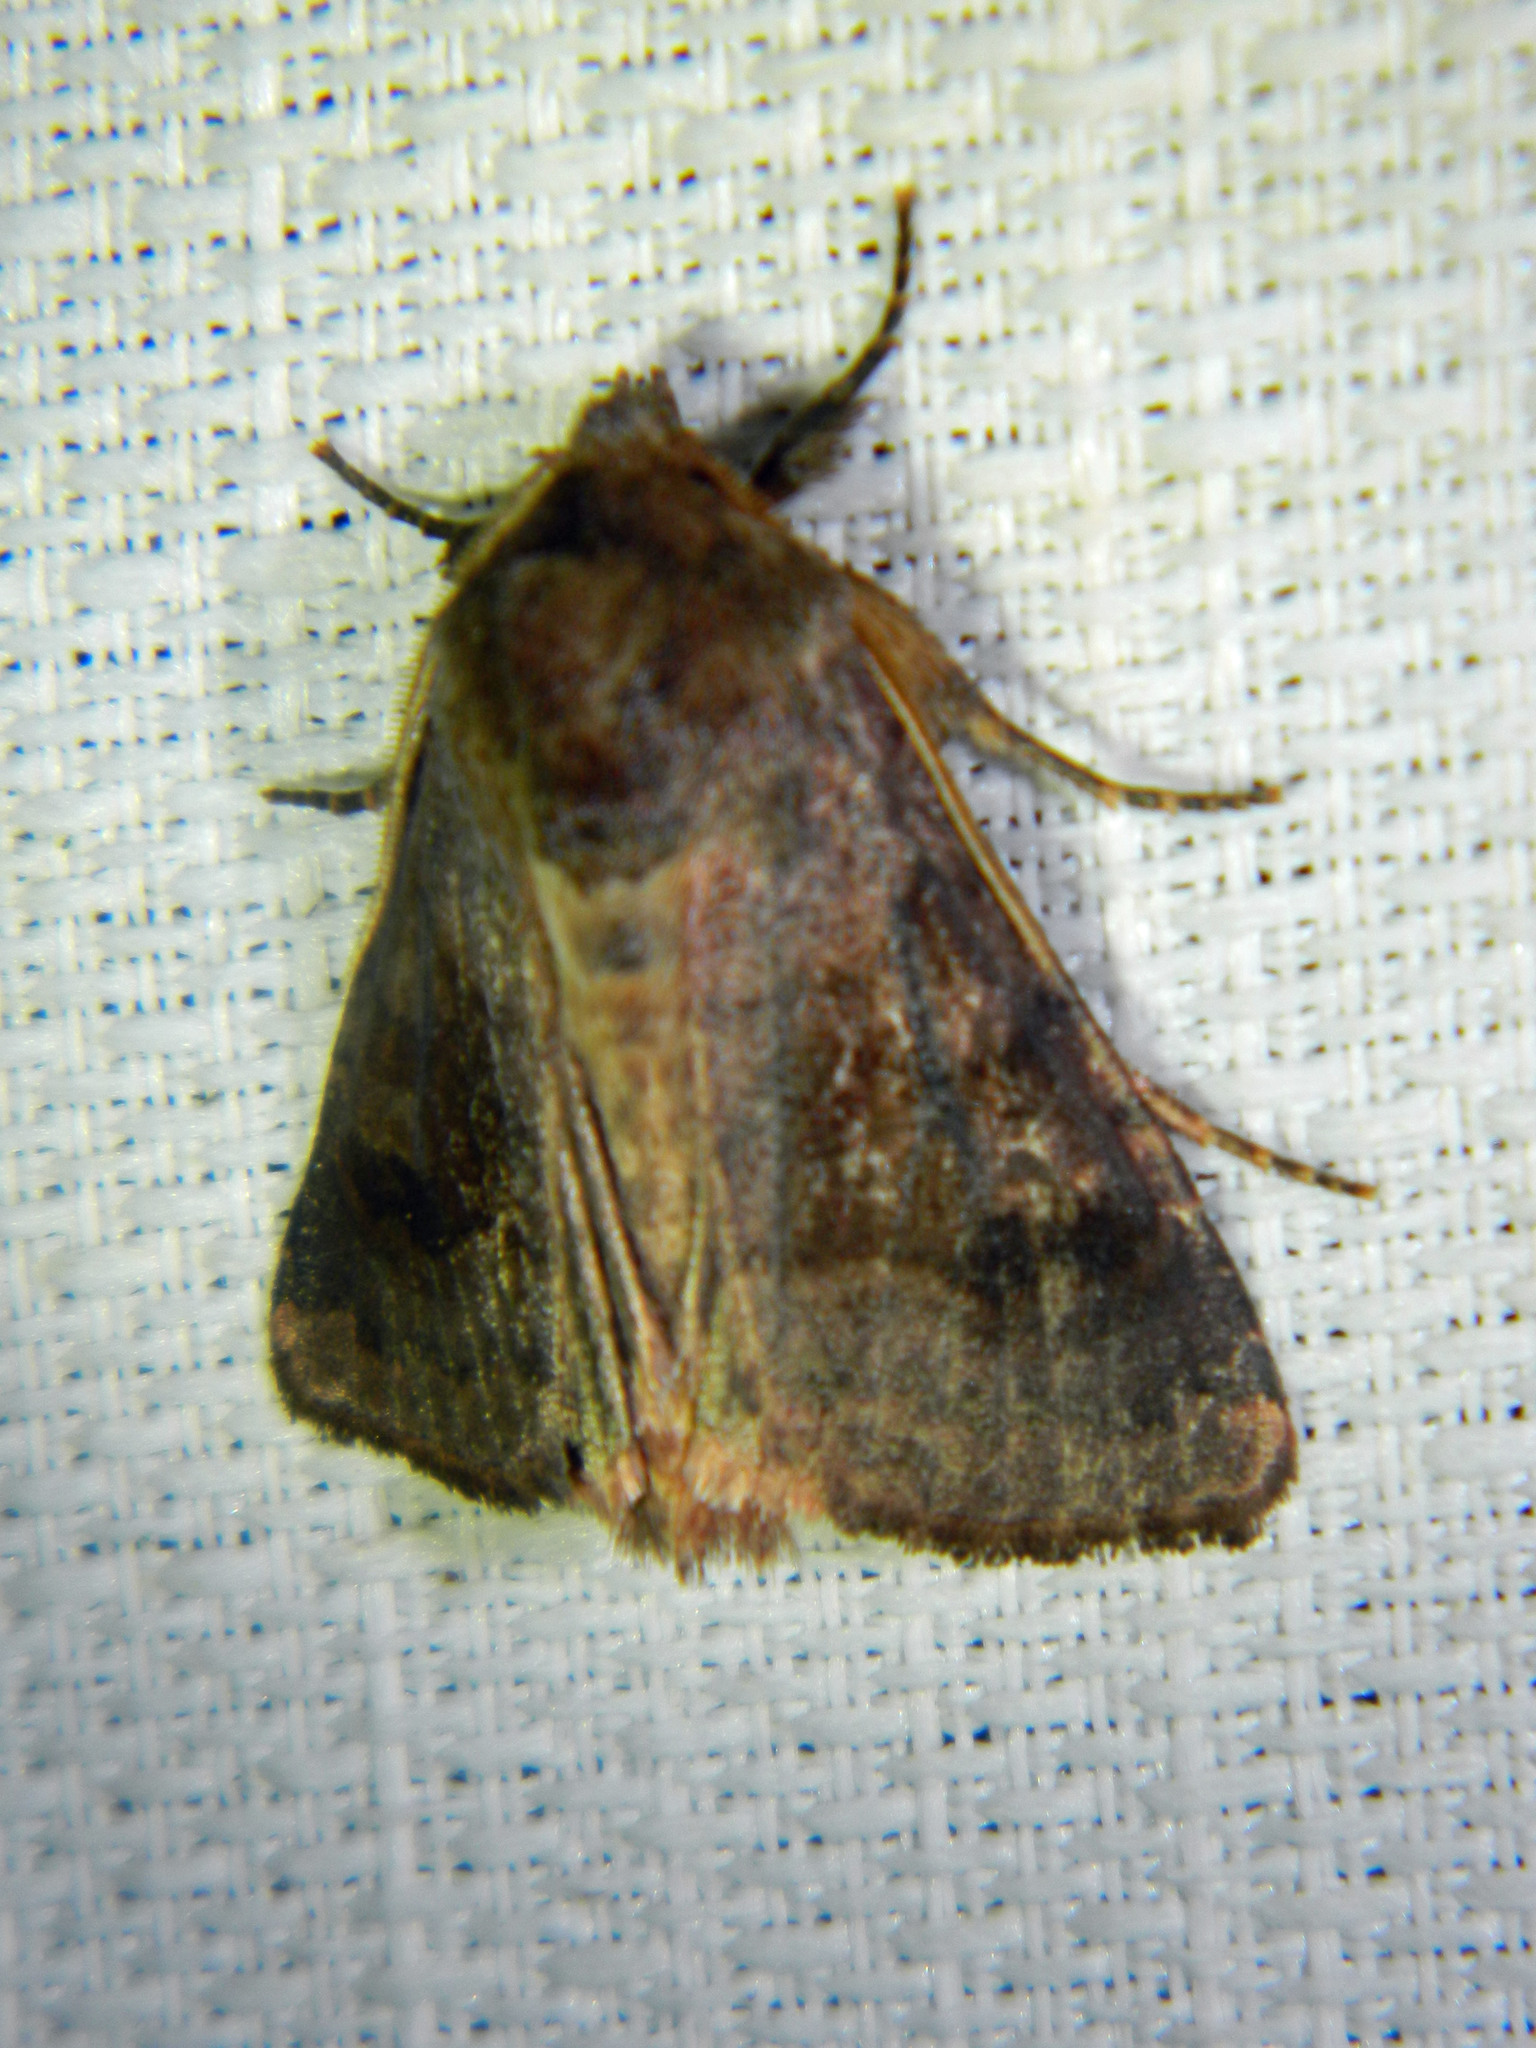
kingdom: Animalia
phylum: Arthropoda
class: Insecta
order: Lepidoptera
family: Noctuidae
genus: Nephelodes
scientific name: Nephelodes minians
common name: Bronzed cutworm
